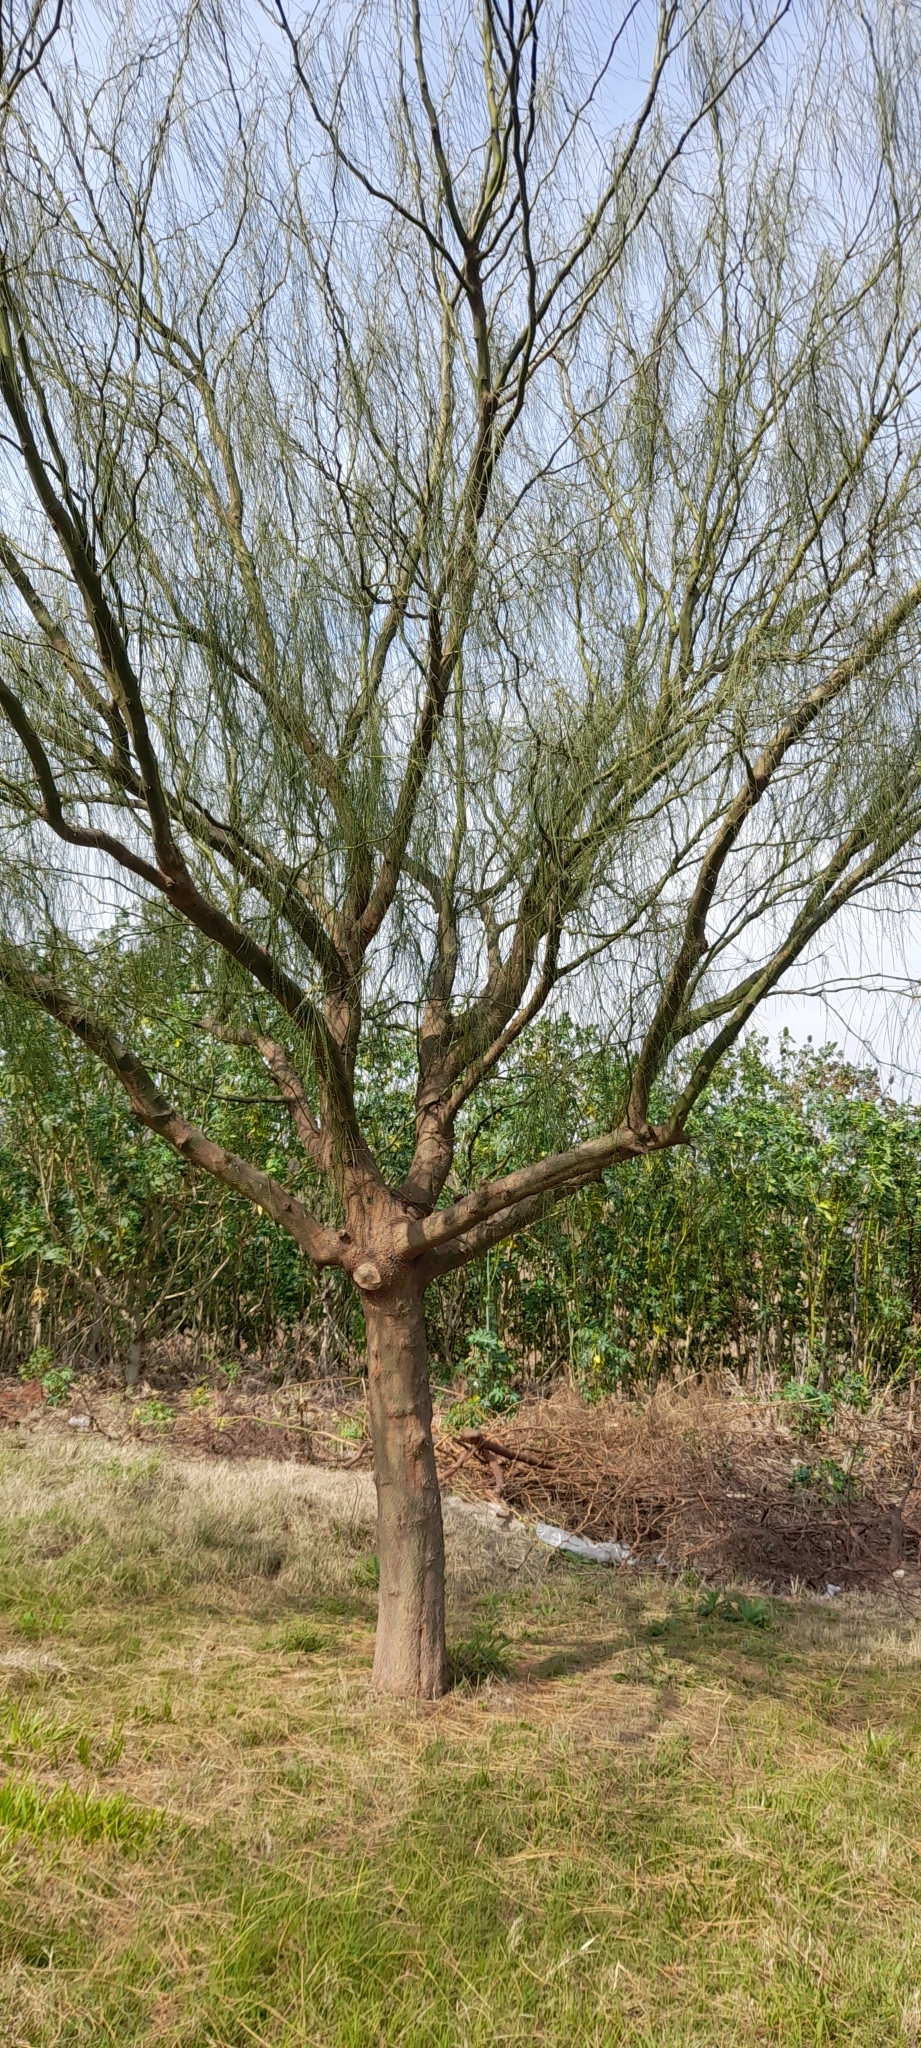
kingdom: Plantae
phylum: Tracheophyta
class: Magnoliopsida
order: Fabales
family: Fabaceae
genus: Parkinsonia
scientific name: Parkinsonia aculeata
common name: Jerusalem thorn
